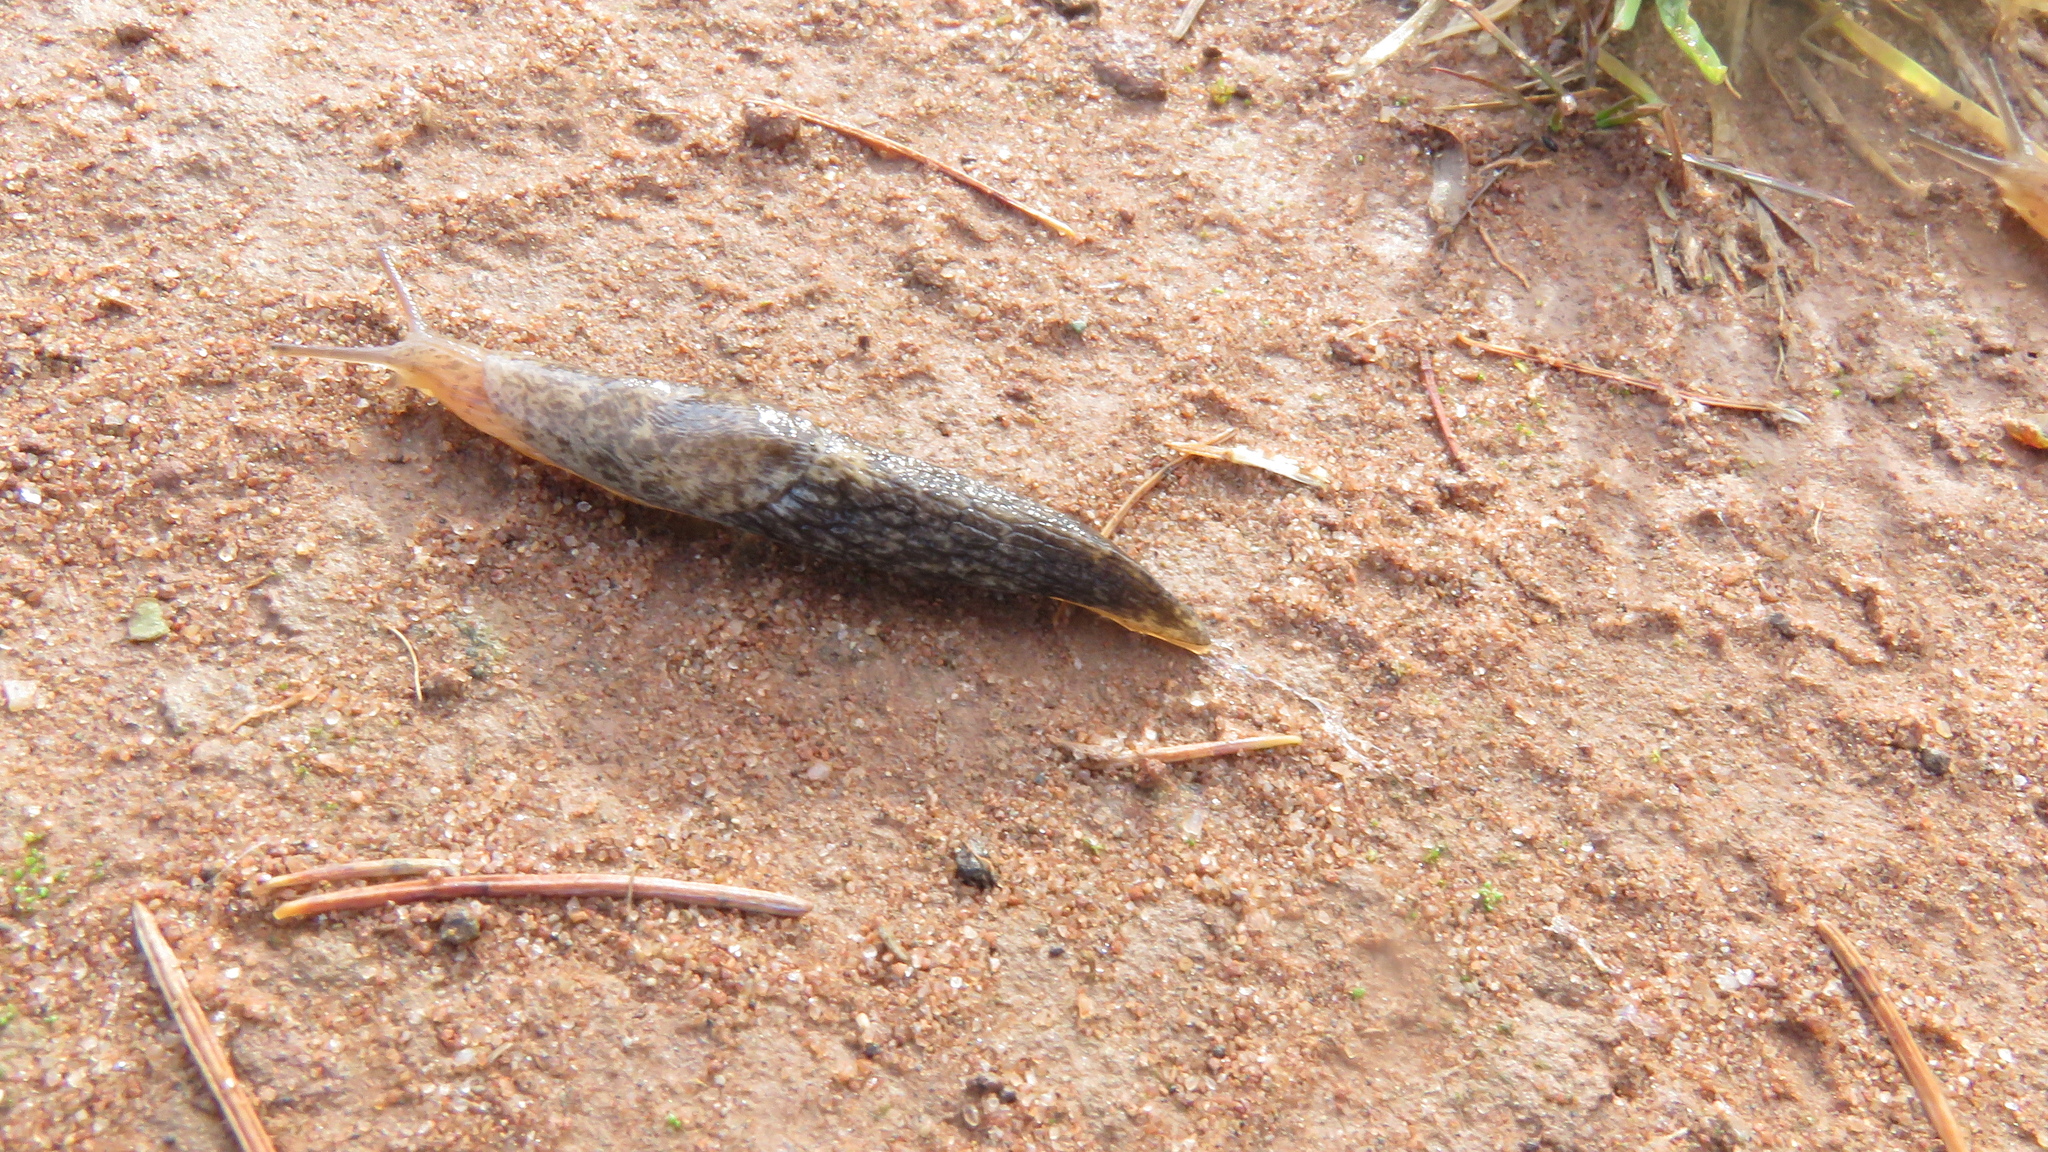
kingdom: Animalia
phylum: Mollusca
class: Gastropoda
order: Stylommatophora
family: Agriolimacidae
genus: Deroceras
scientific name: Deroceras reticulatum
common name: Gray field slug
